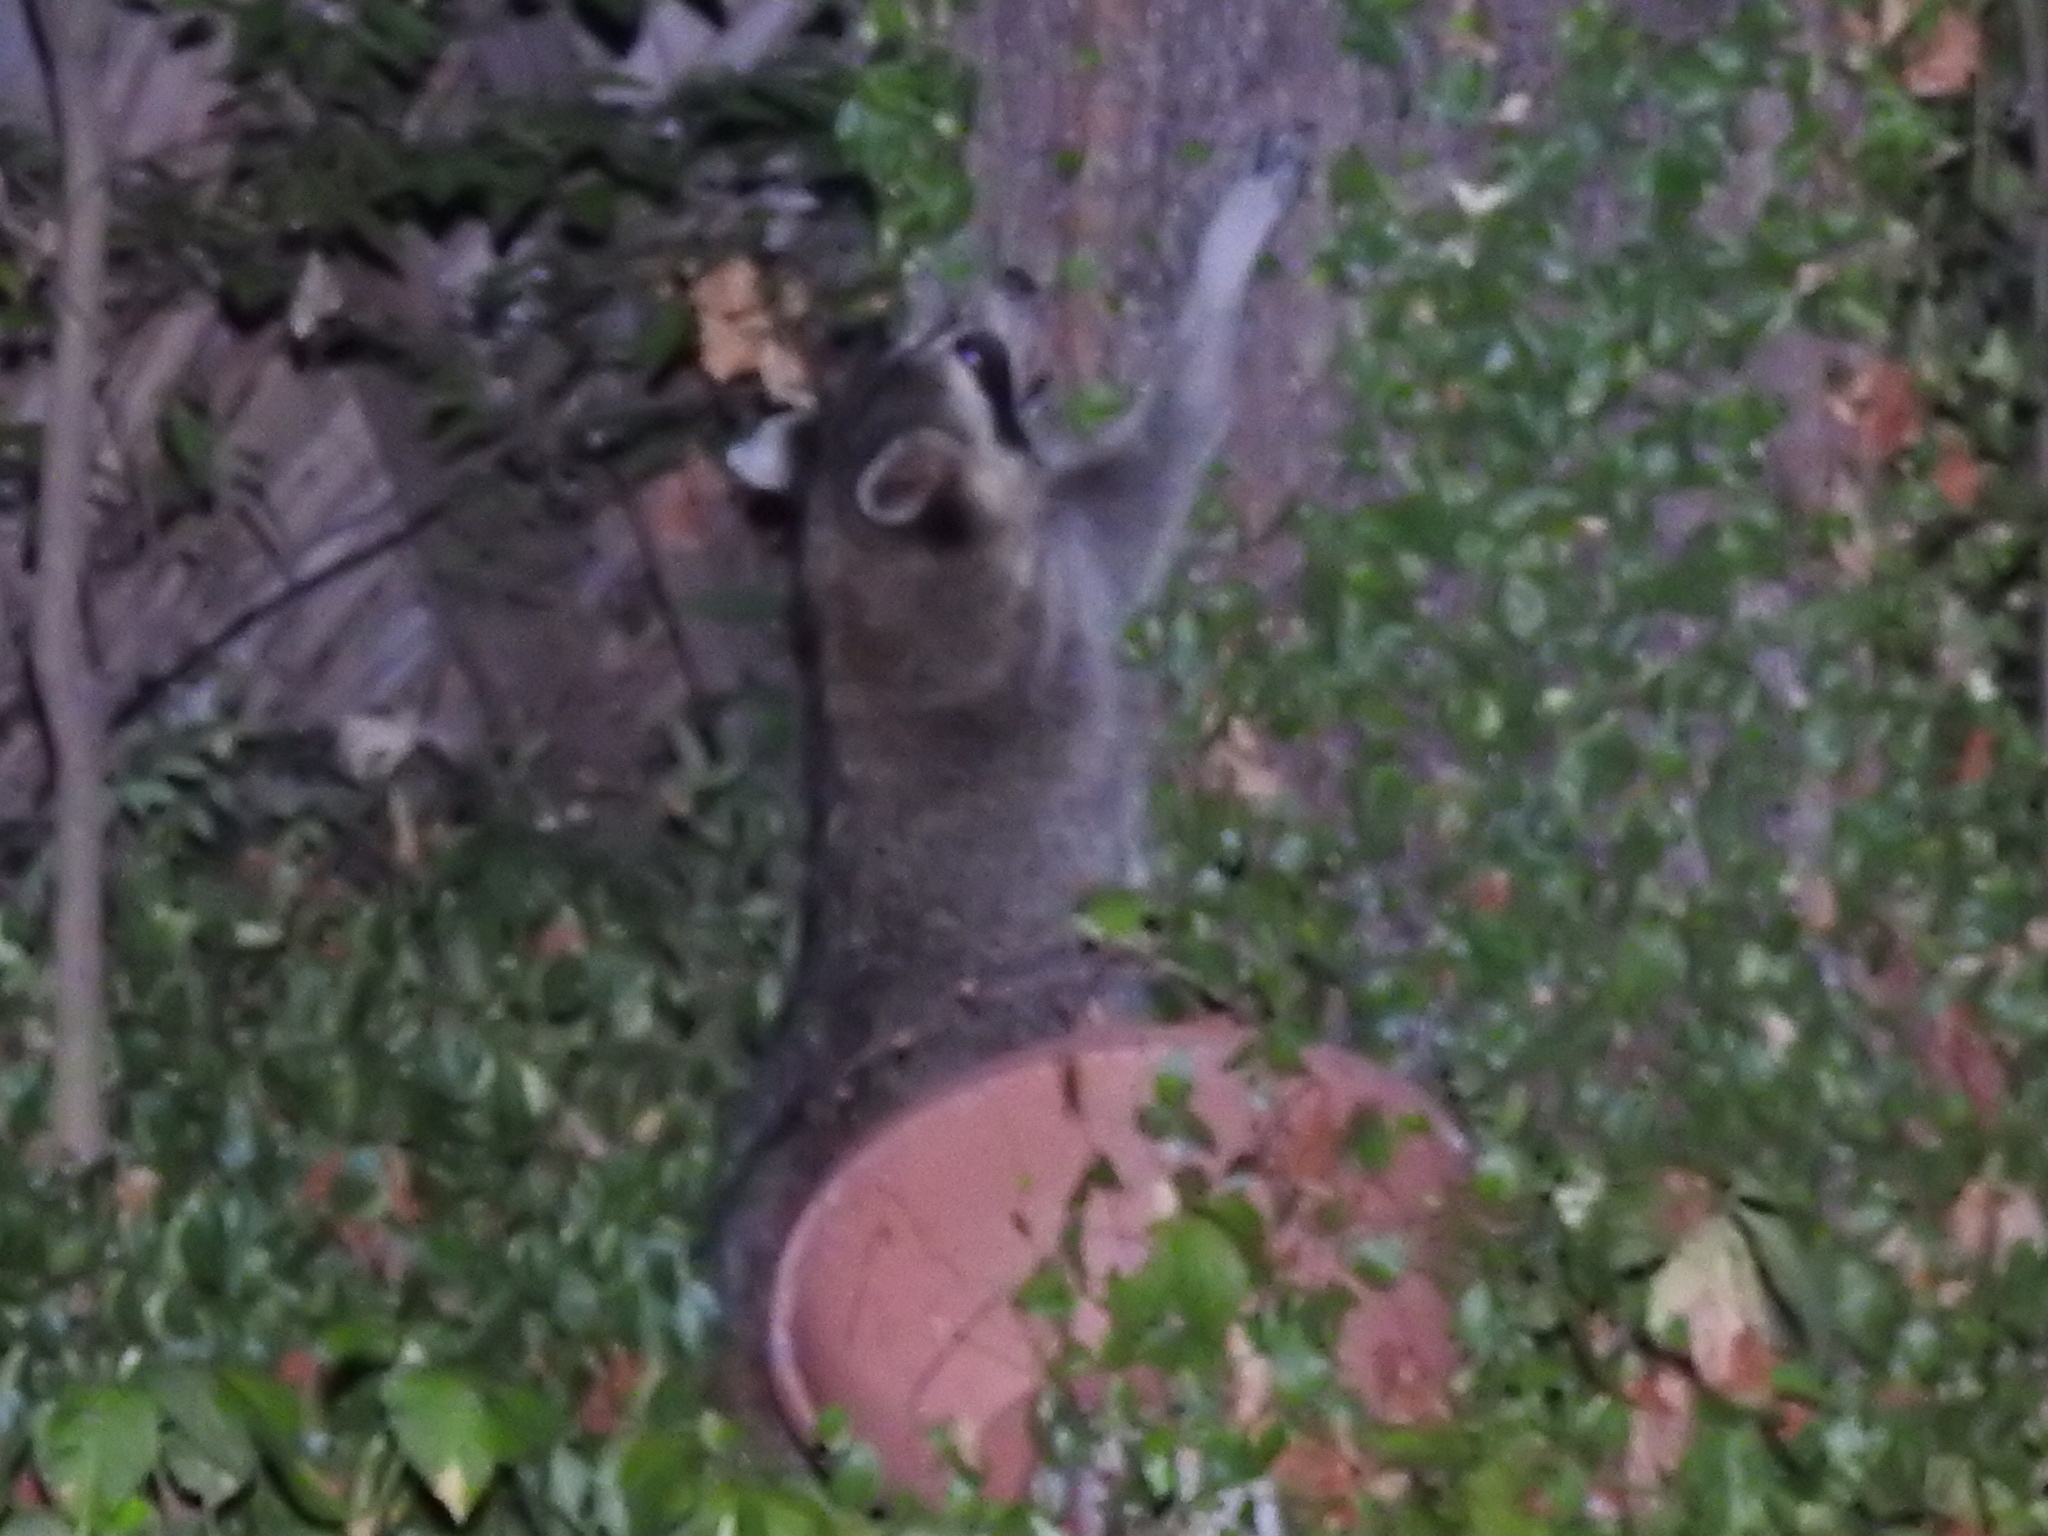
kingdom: Animalia
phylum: Chordata
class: Mammalia
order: Carnivora
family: Procyonidae
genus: Procyon
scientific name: Procyon lotor
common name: Raccoon
